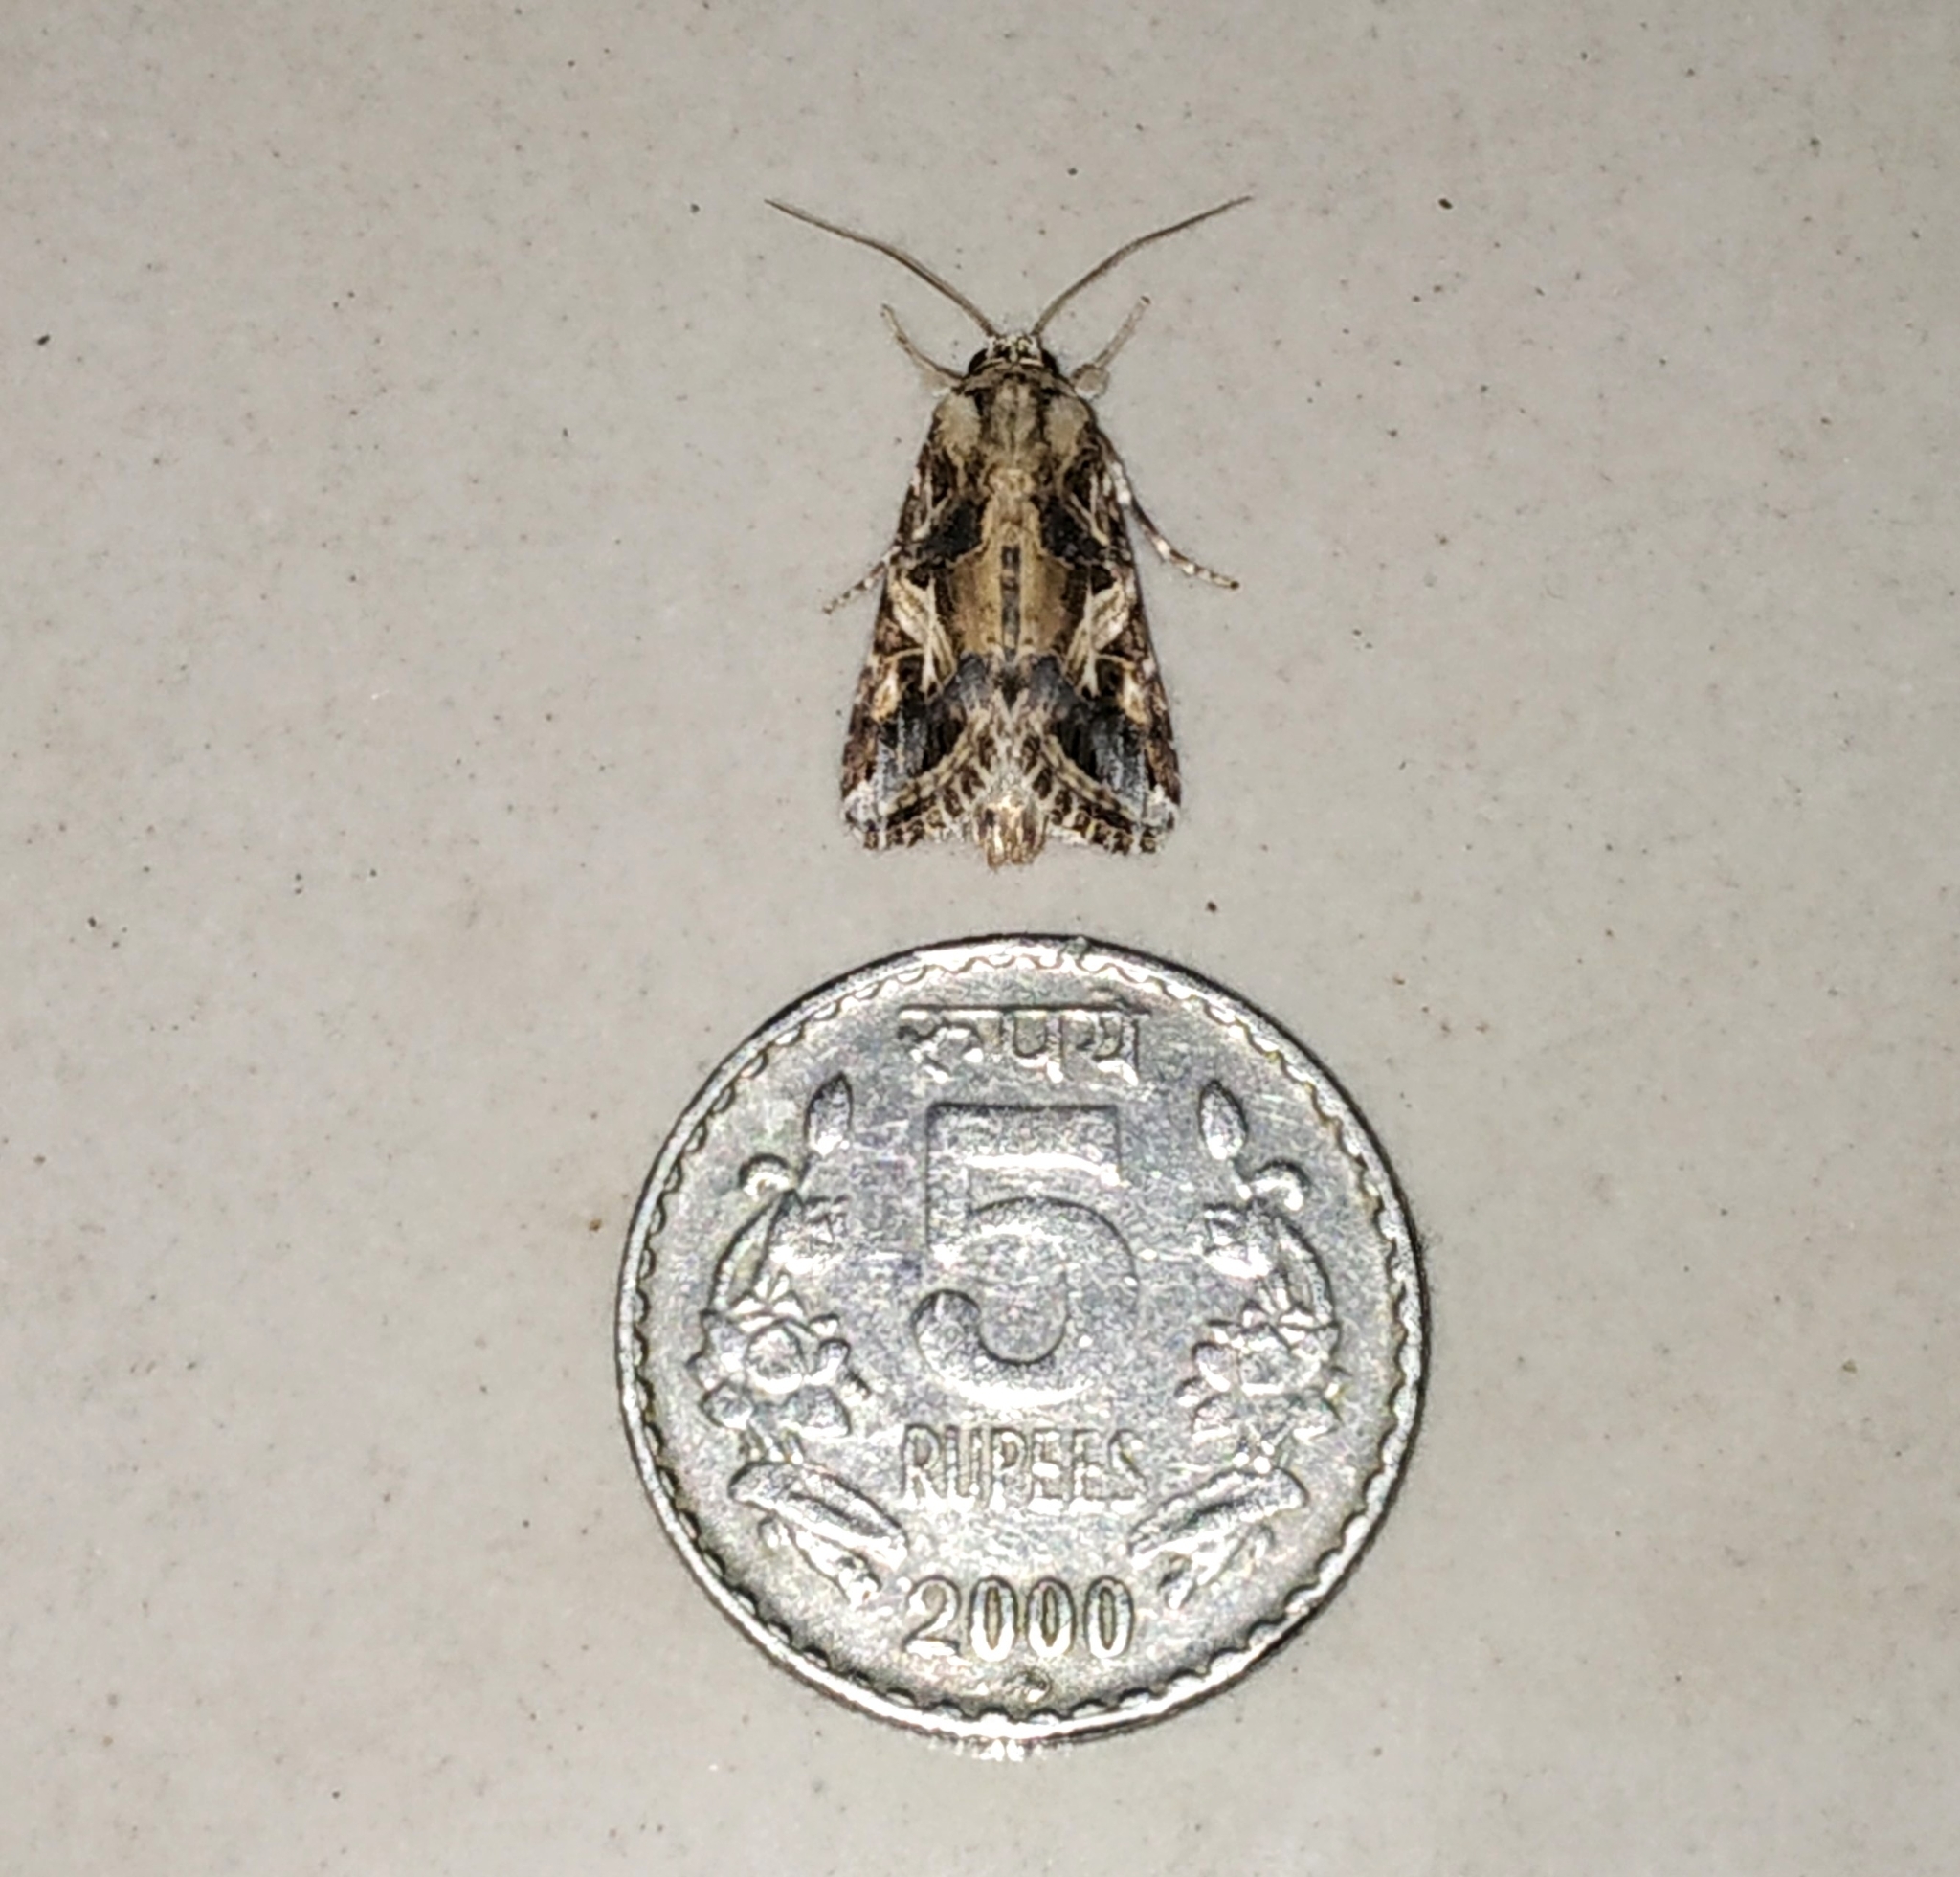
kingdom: Animalia
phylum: Arthropoda
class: Insecta
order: Lepidoptera
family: Noctuidae
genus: Spodoptera
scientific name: Spodoptera litura
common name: Asian cotton leafworm
